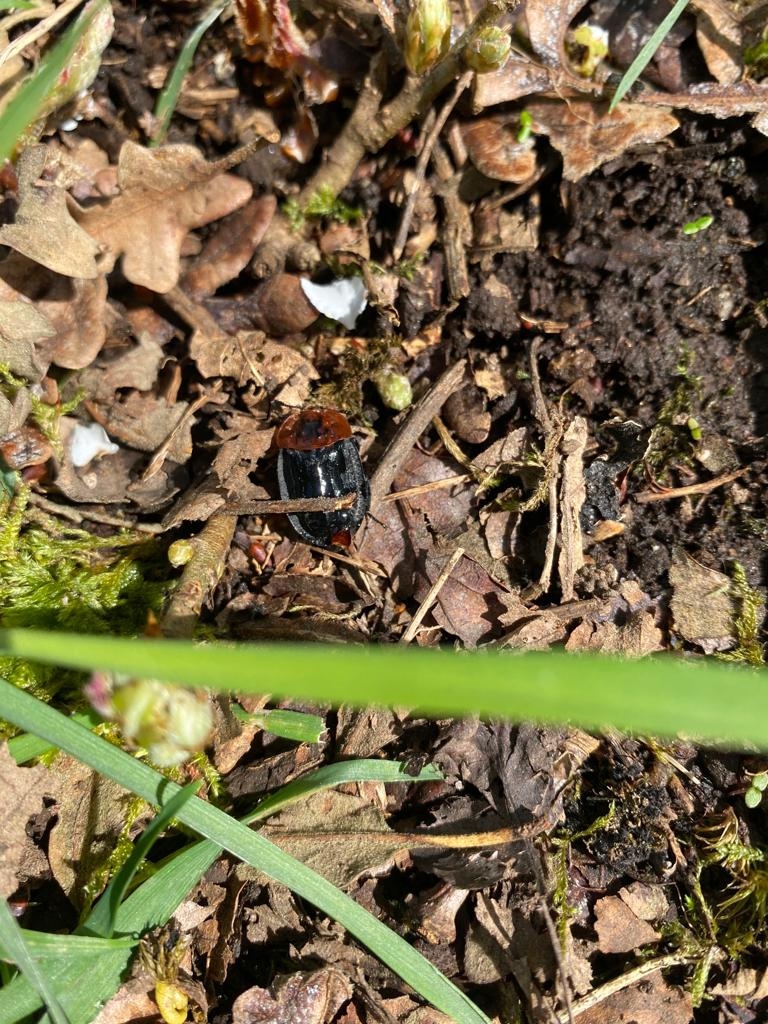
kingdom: Animalia
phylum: Arthropoda
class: Insecta
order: Coleoptera
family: Staphylinidae
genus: Oiceoptoma
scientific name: Oiceoptoma thoracicum
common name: Red-breasted carrion beetle
